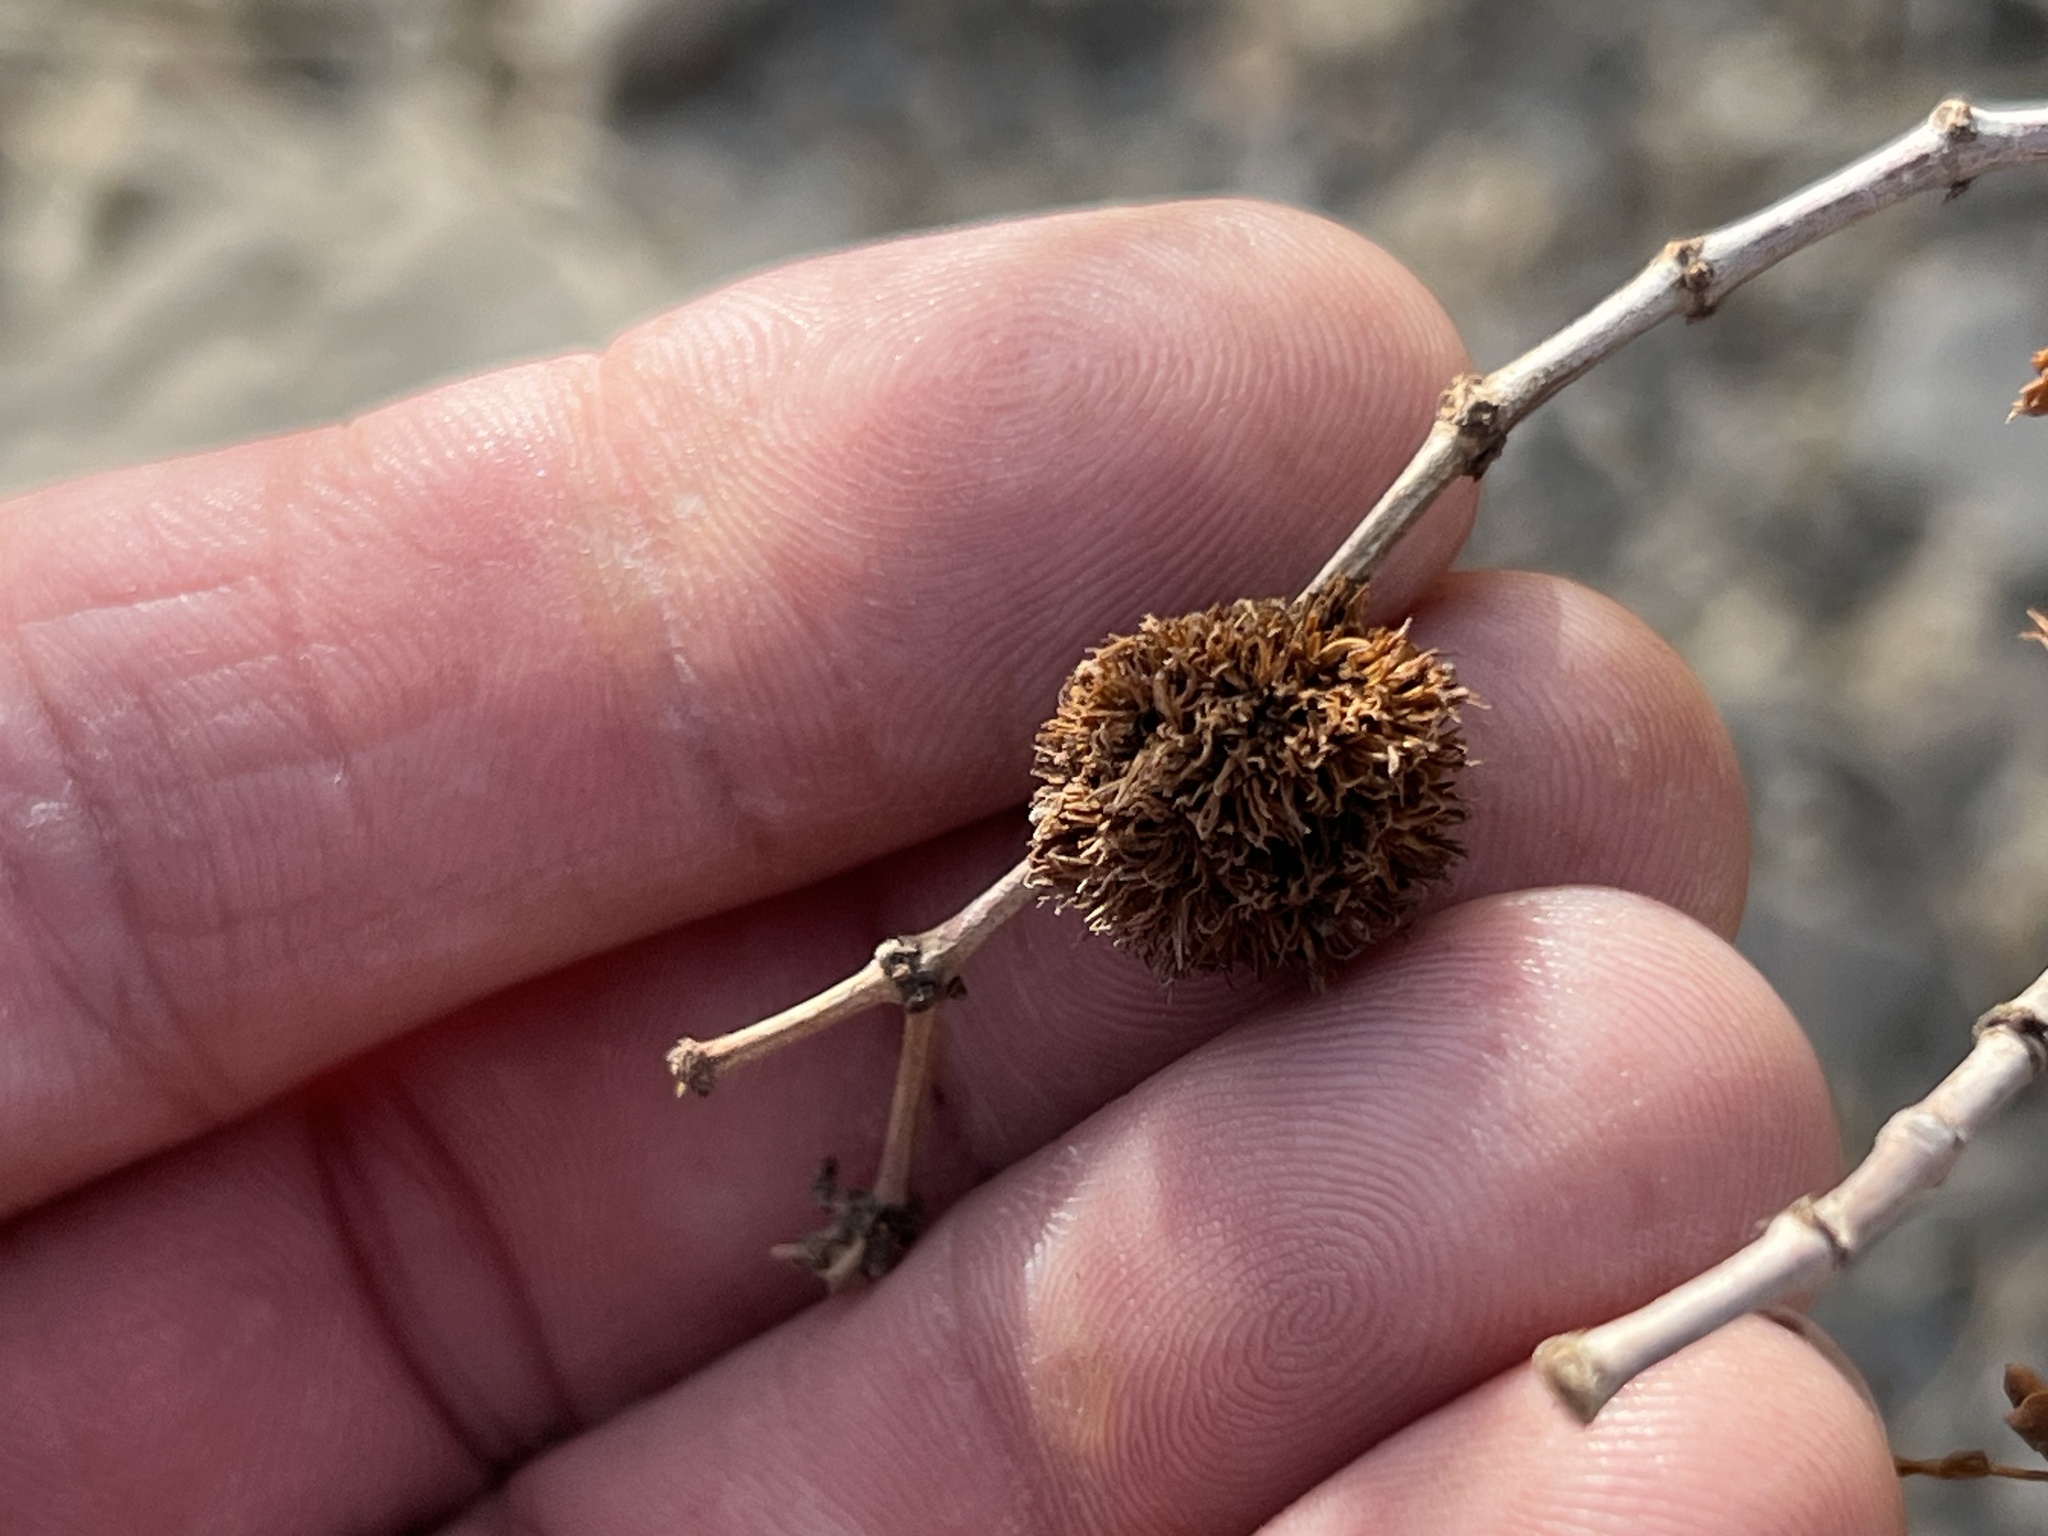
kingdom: Animalia
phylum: Arthropoda
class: Insecta
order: Diptera
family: Cecidomyiidae
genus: Asphondylia
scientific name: Asphondylia auripila
